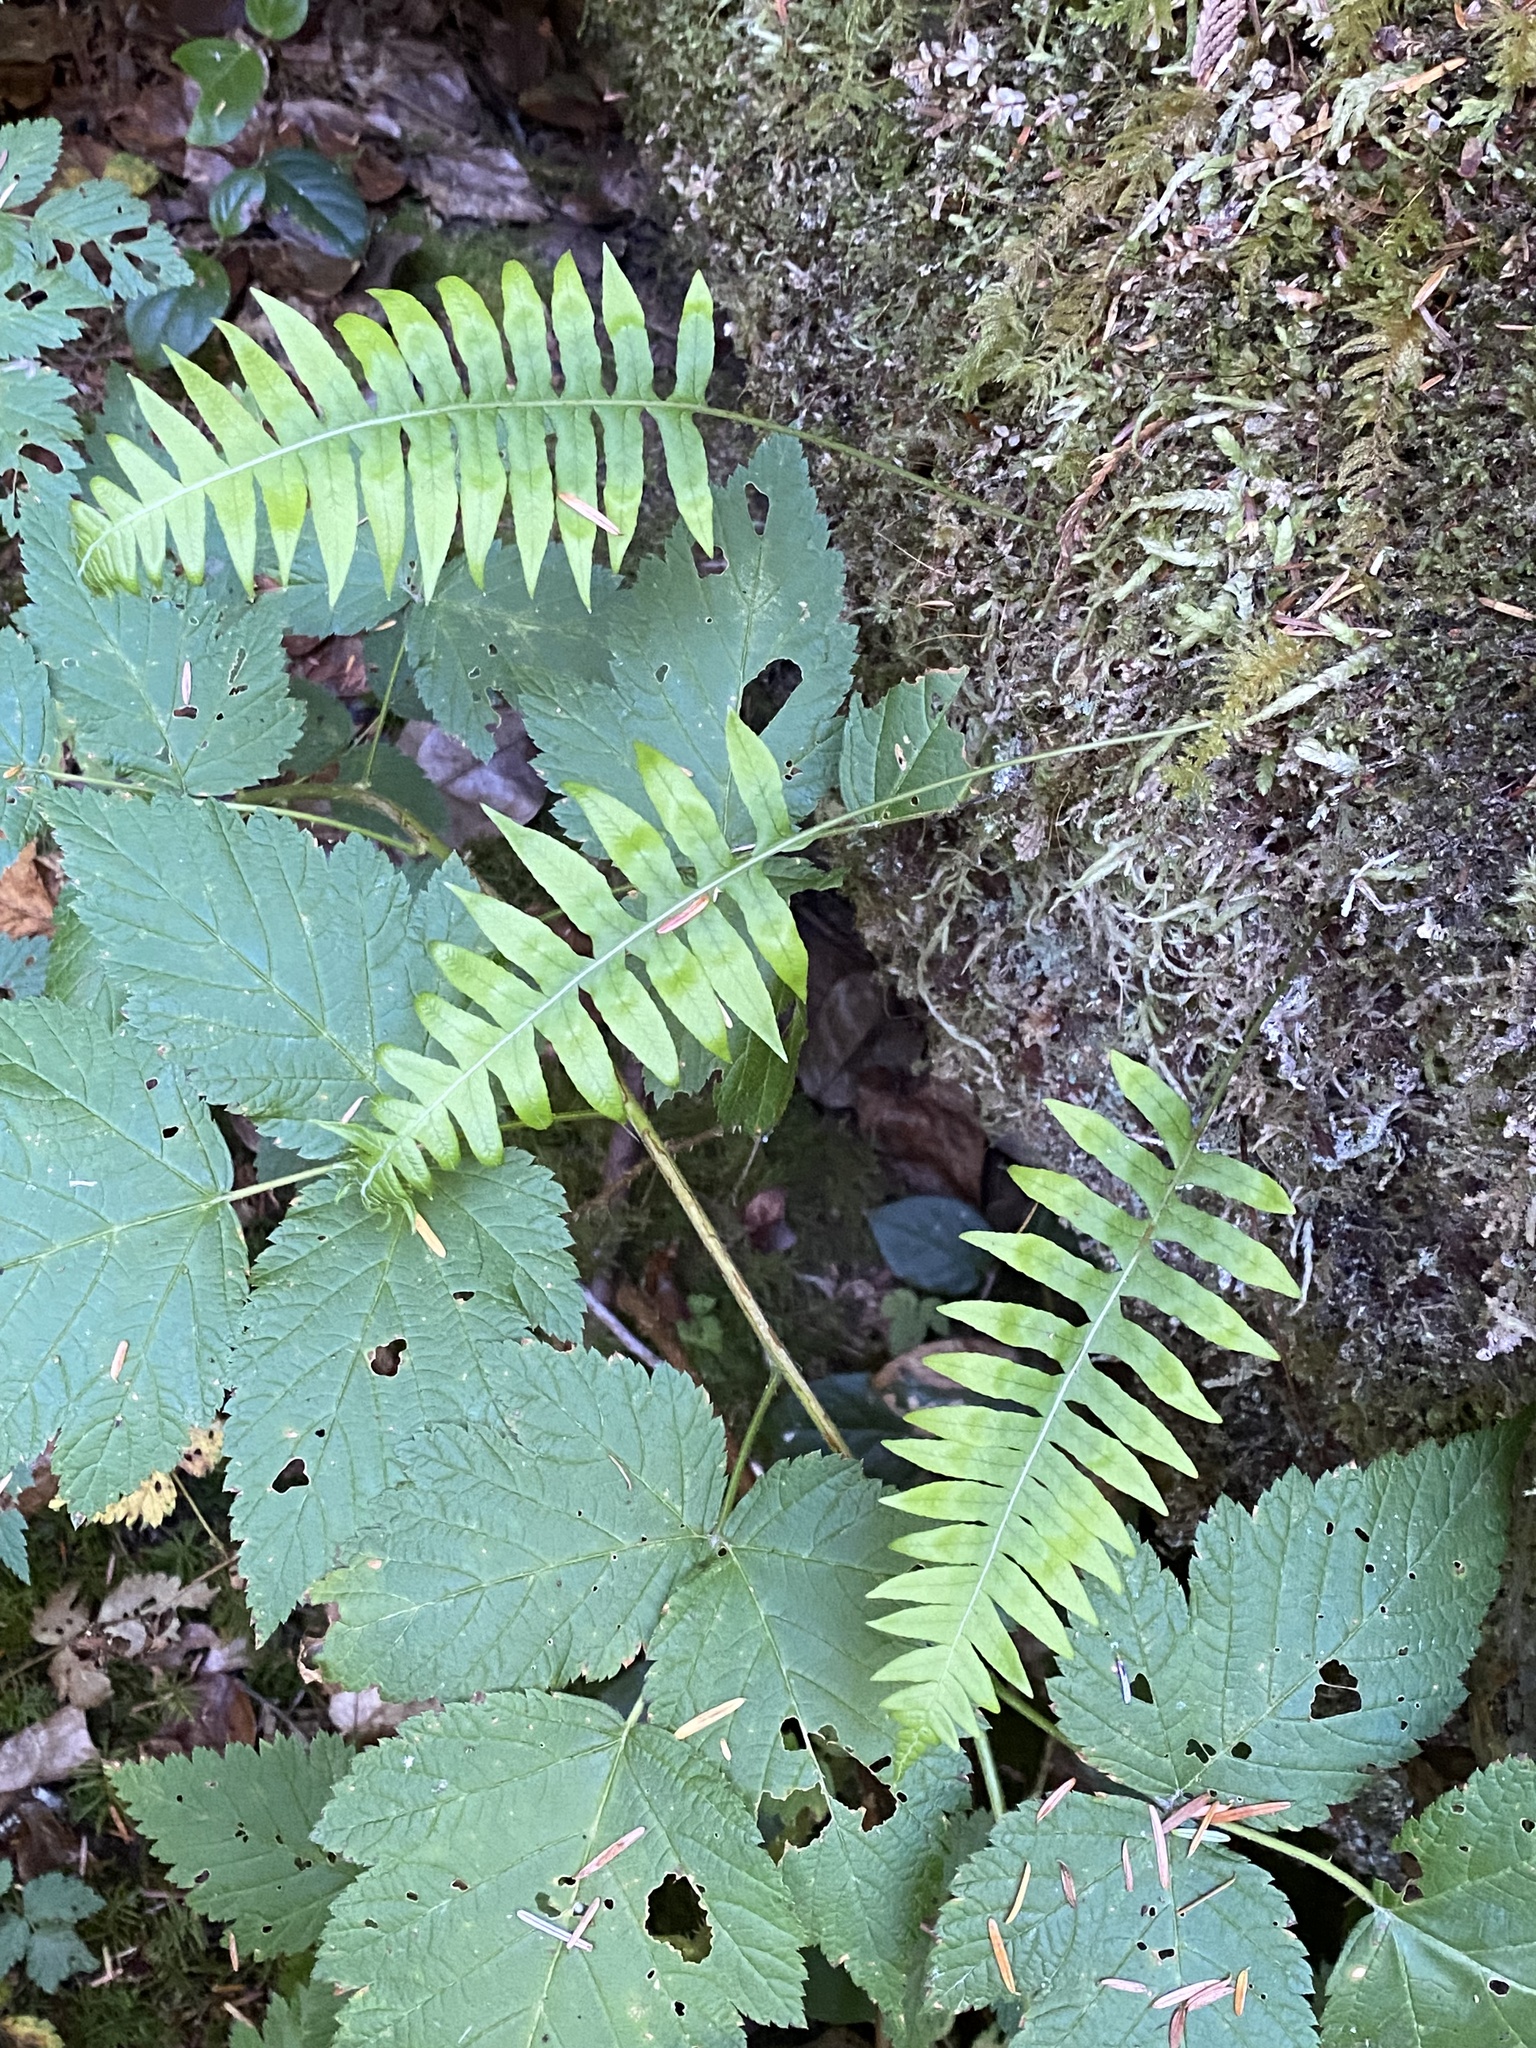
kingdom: Plantae
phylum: Tracheophyta
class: Polypodiopsida
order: Polypodiales
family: Polypodiaceae
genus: Polypodium
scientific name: Polypodium glycyrrhiza
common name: Licorice fern
